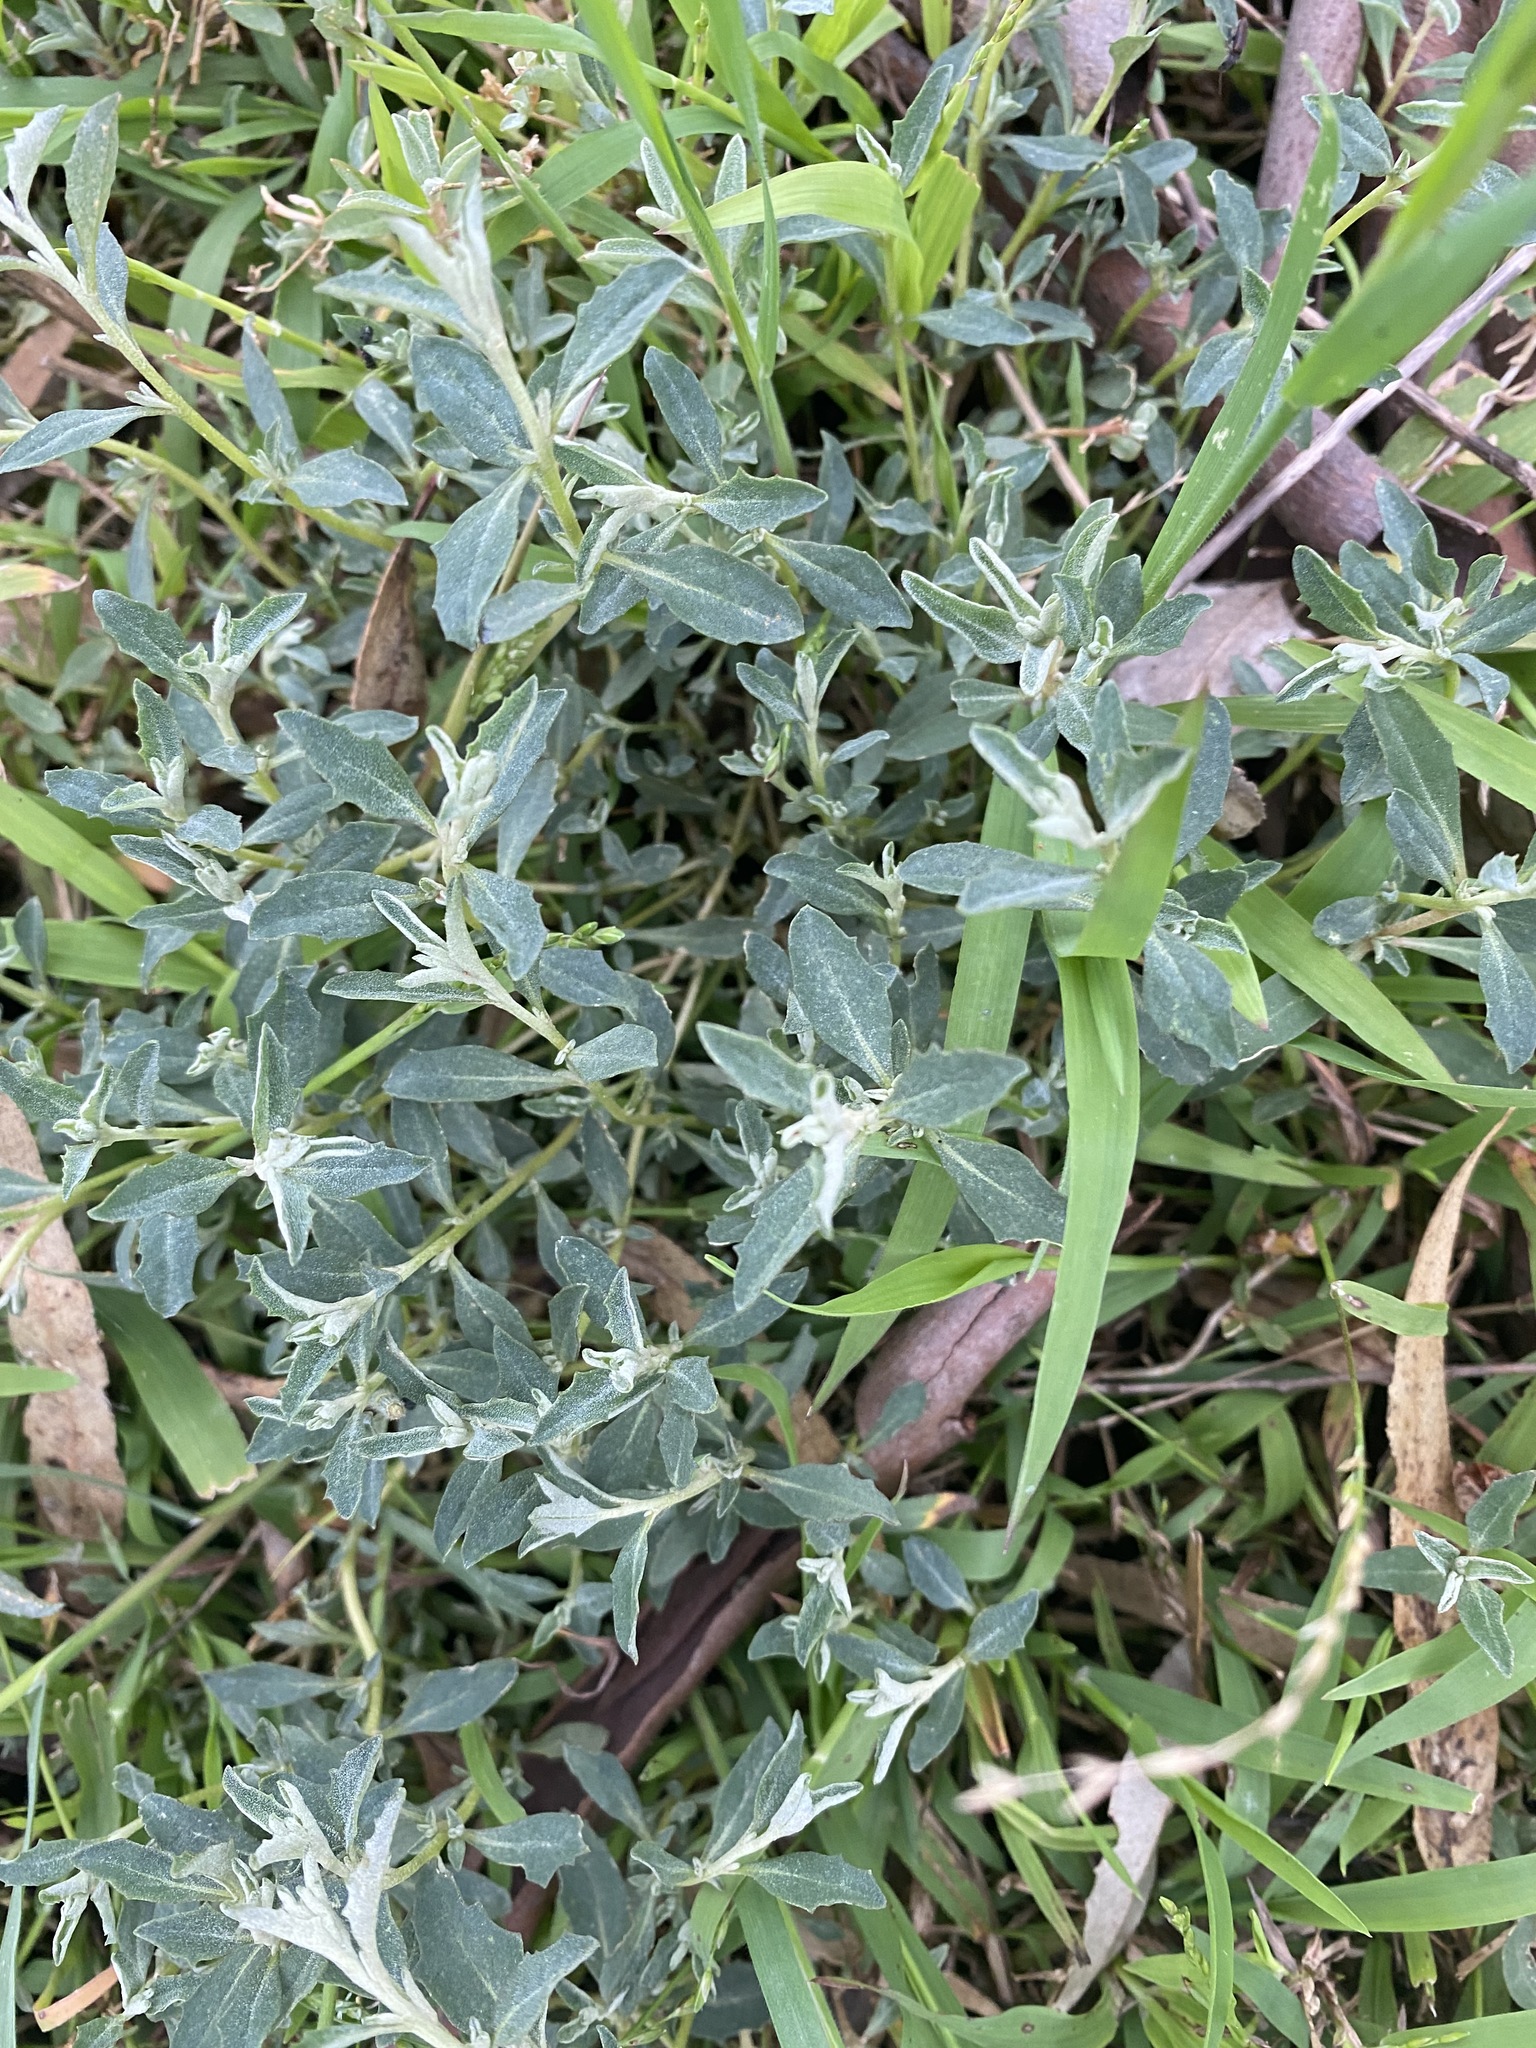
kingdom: Plantae
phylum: Tracheophyta
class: Magnoliopsida
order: Caryophyllales
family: Amaranthaceae
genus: Atriplex
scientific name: Atriplex semibaccata
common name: Australian saltbush
